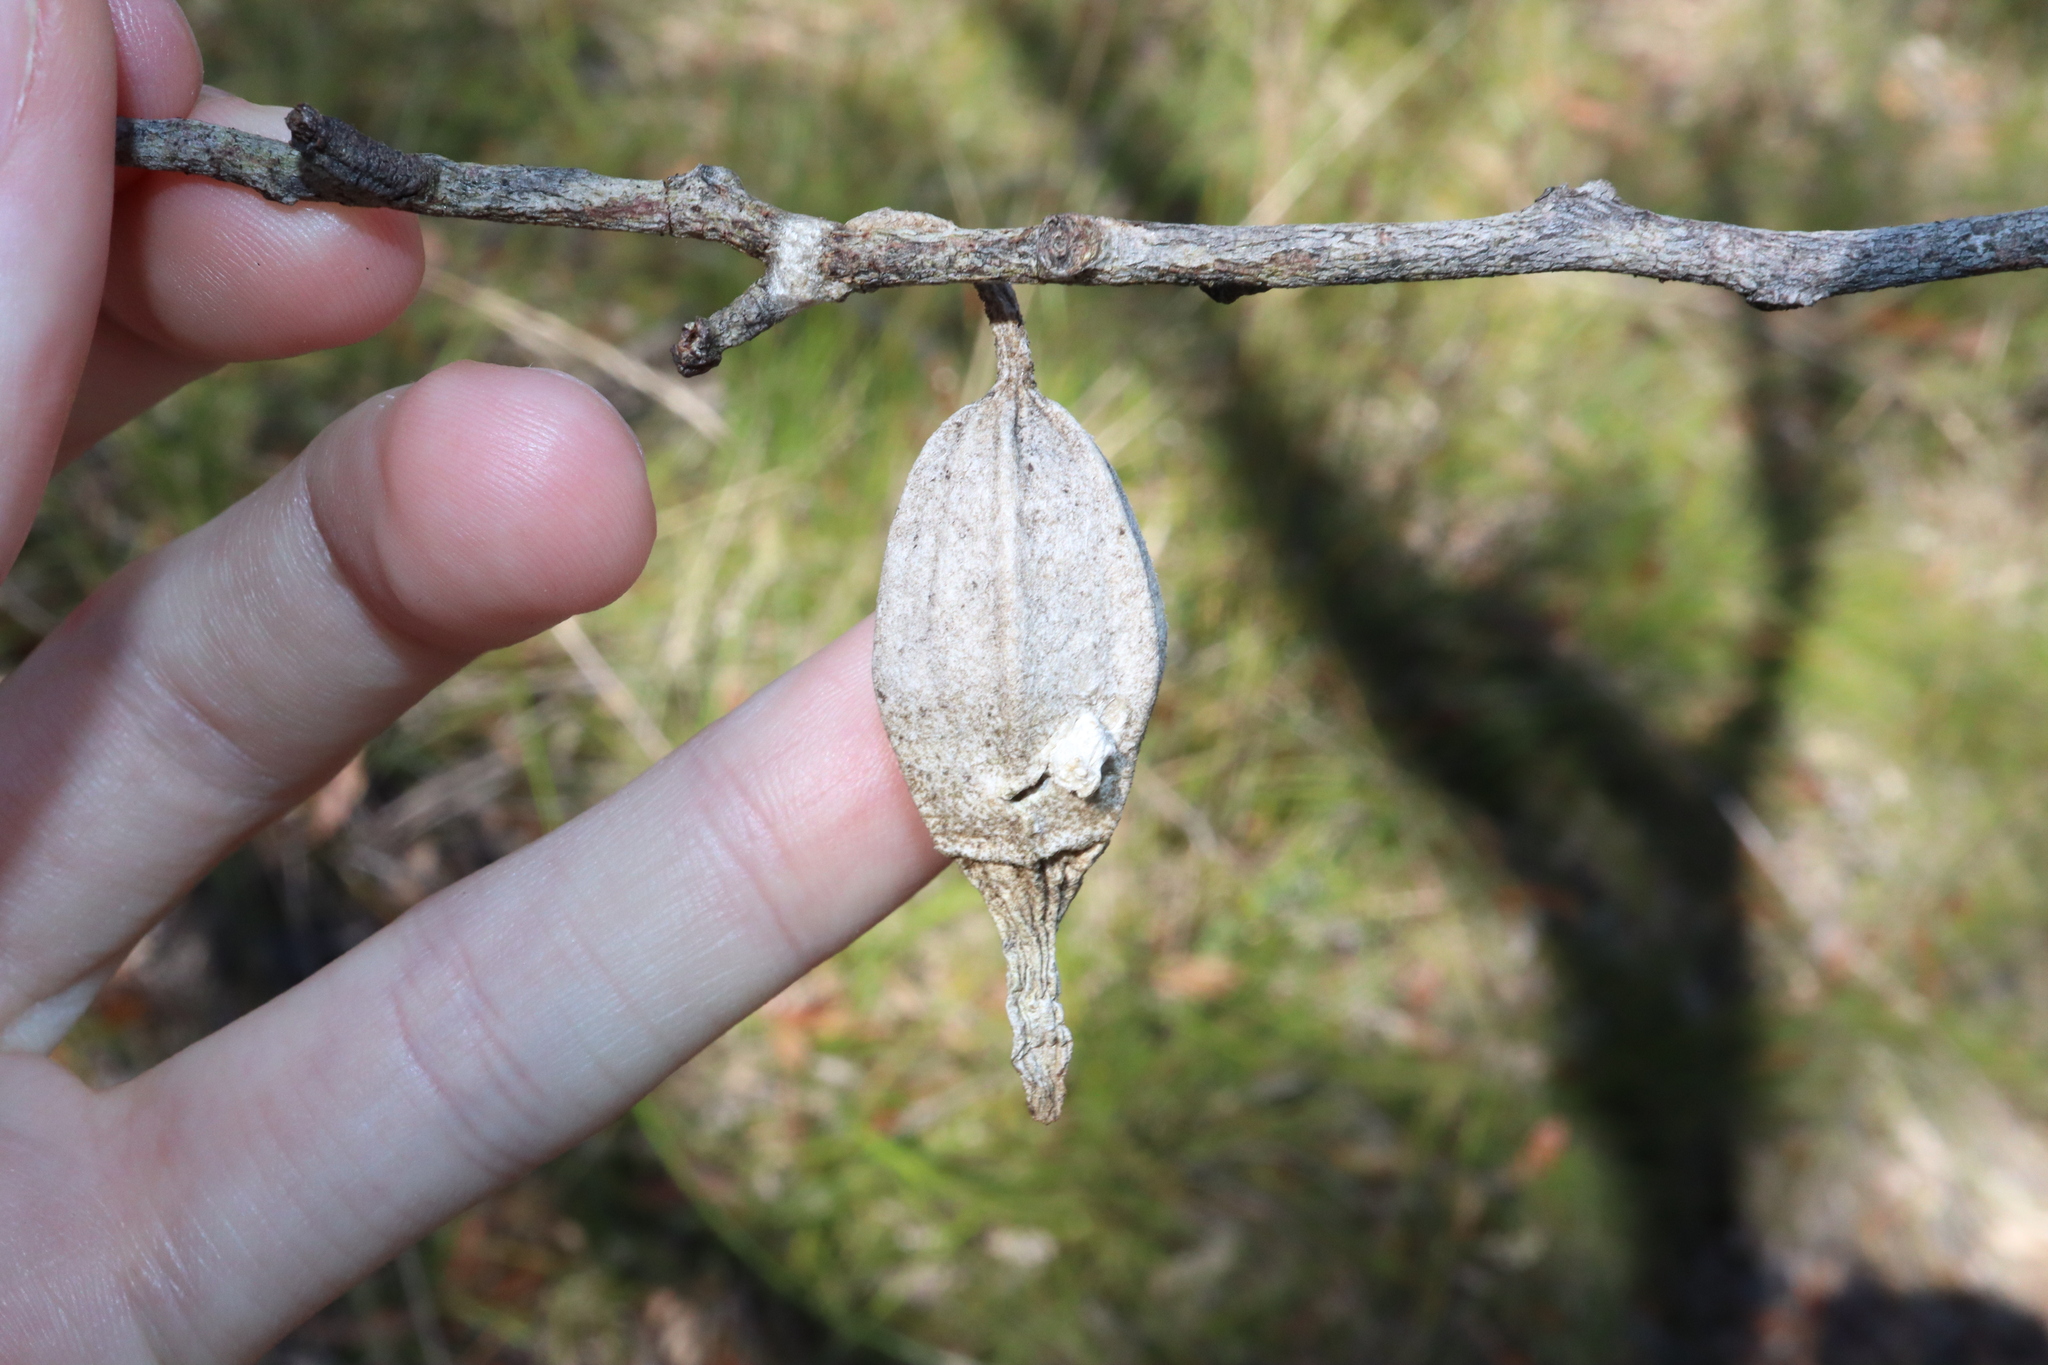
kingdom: Animalia
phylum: Arthropoda
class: Insecta
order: Lepidoptera
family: Psychidae
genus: Hyalarcta
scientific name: Hyalarcta nigrescens
